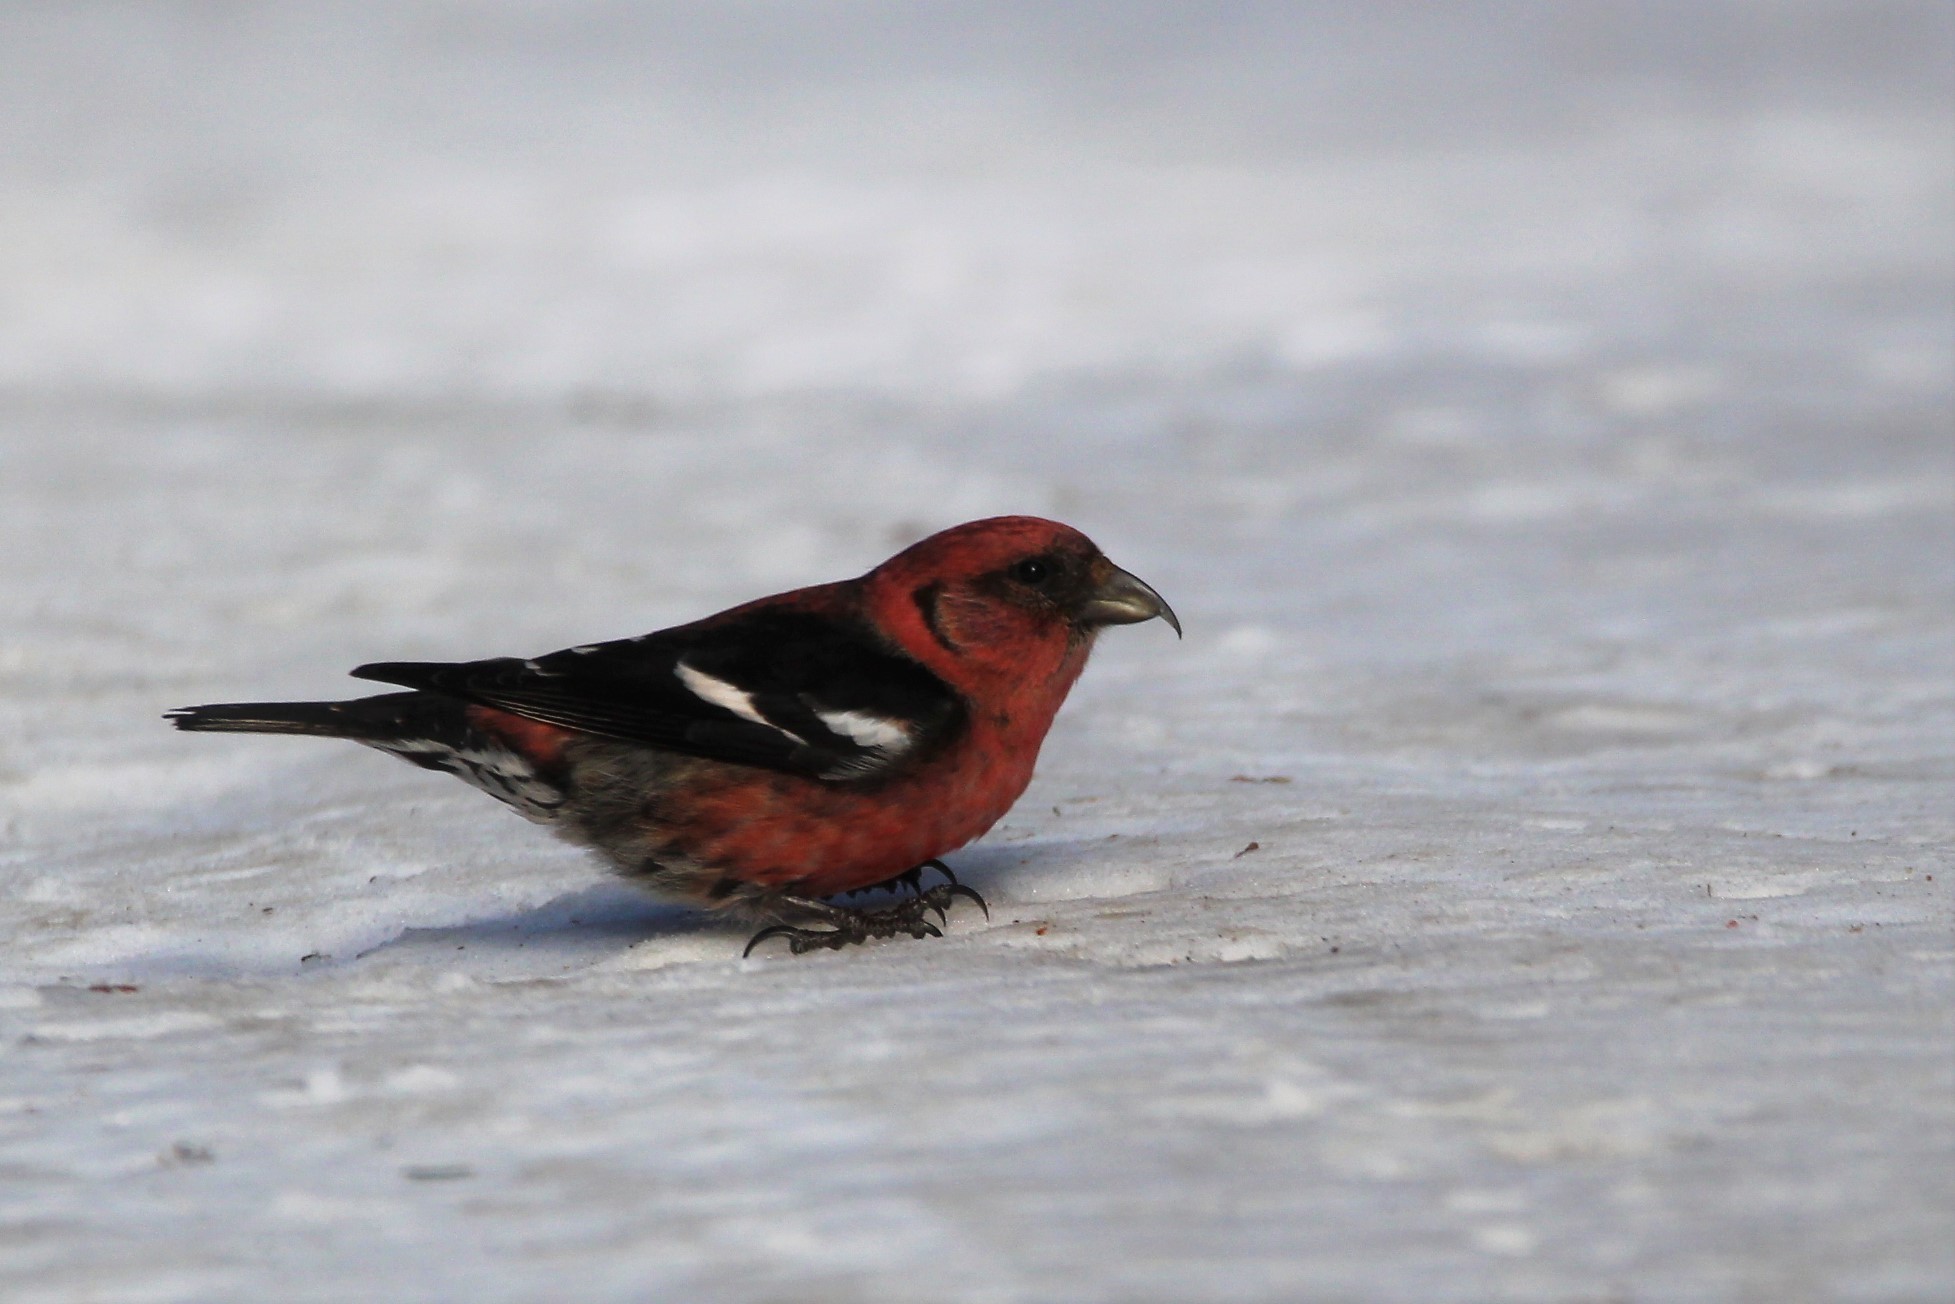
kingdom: Animalia
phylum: Chordata
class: Aves
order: Passeriformes
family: Fringillidae
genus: Loxia
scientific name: Loxia leucoptera
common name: Two-barred crossbill
